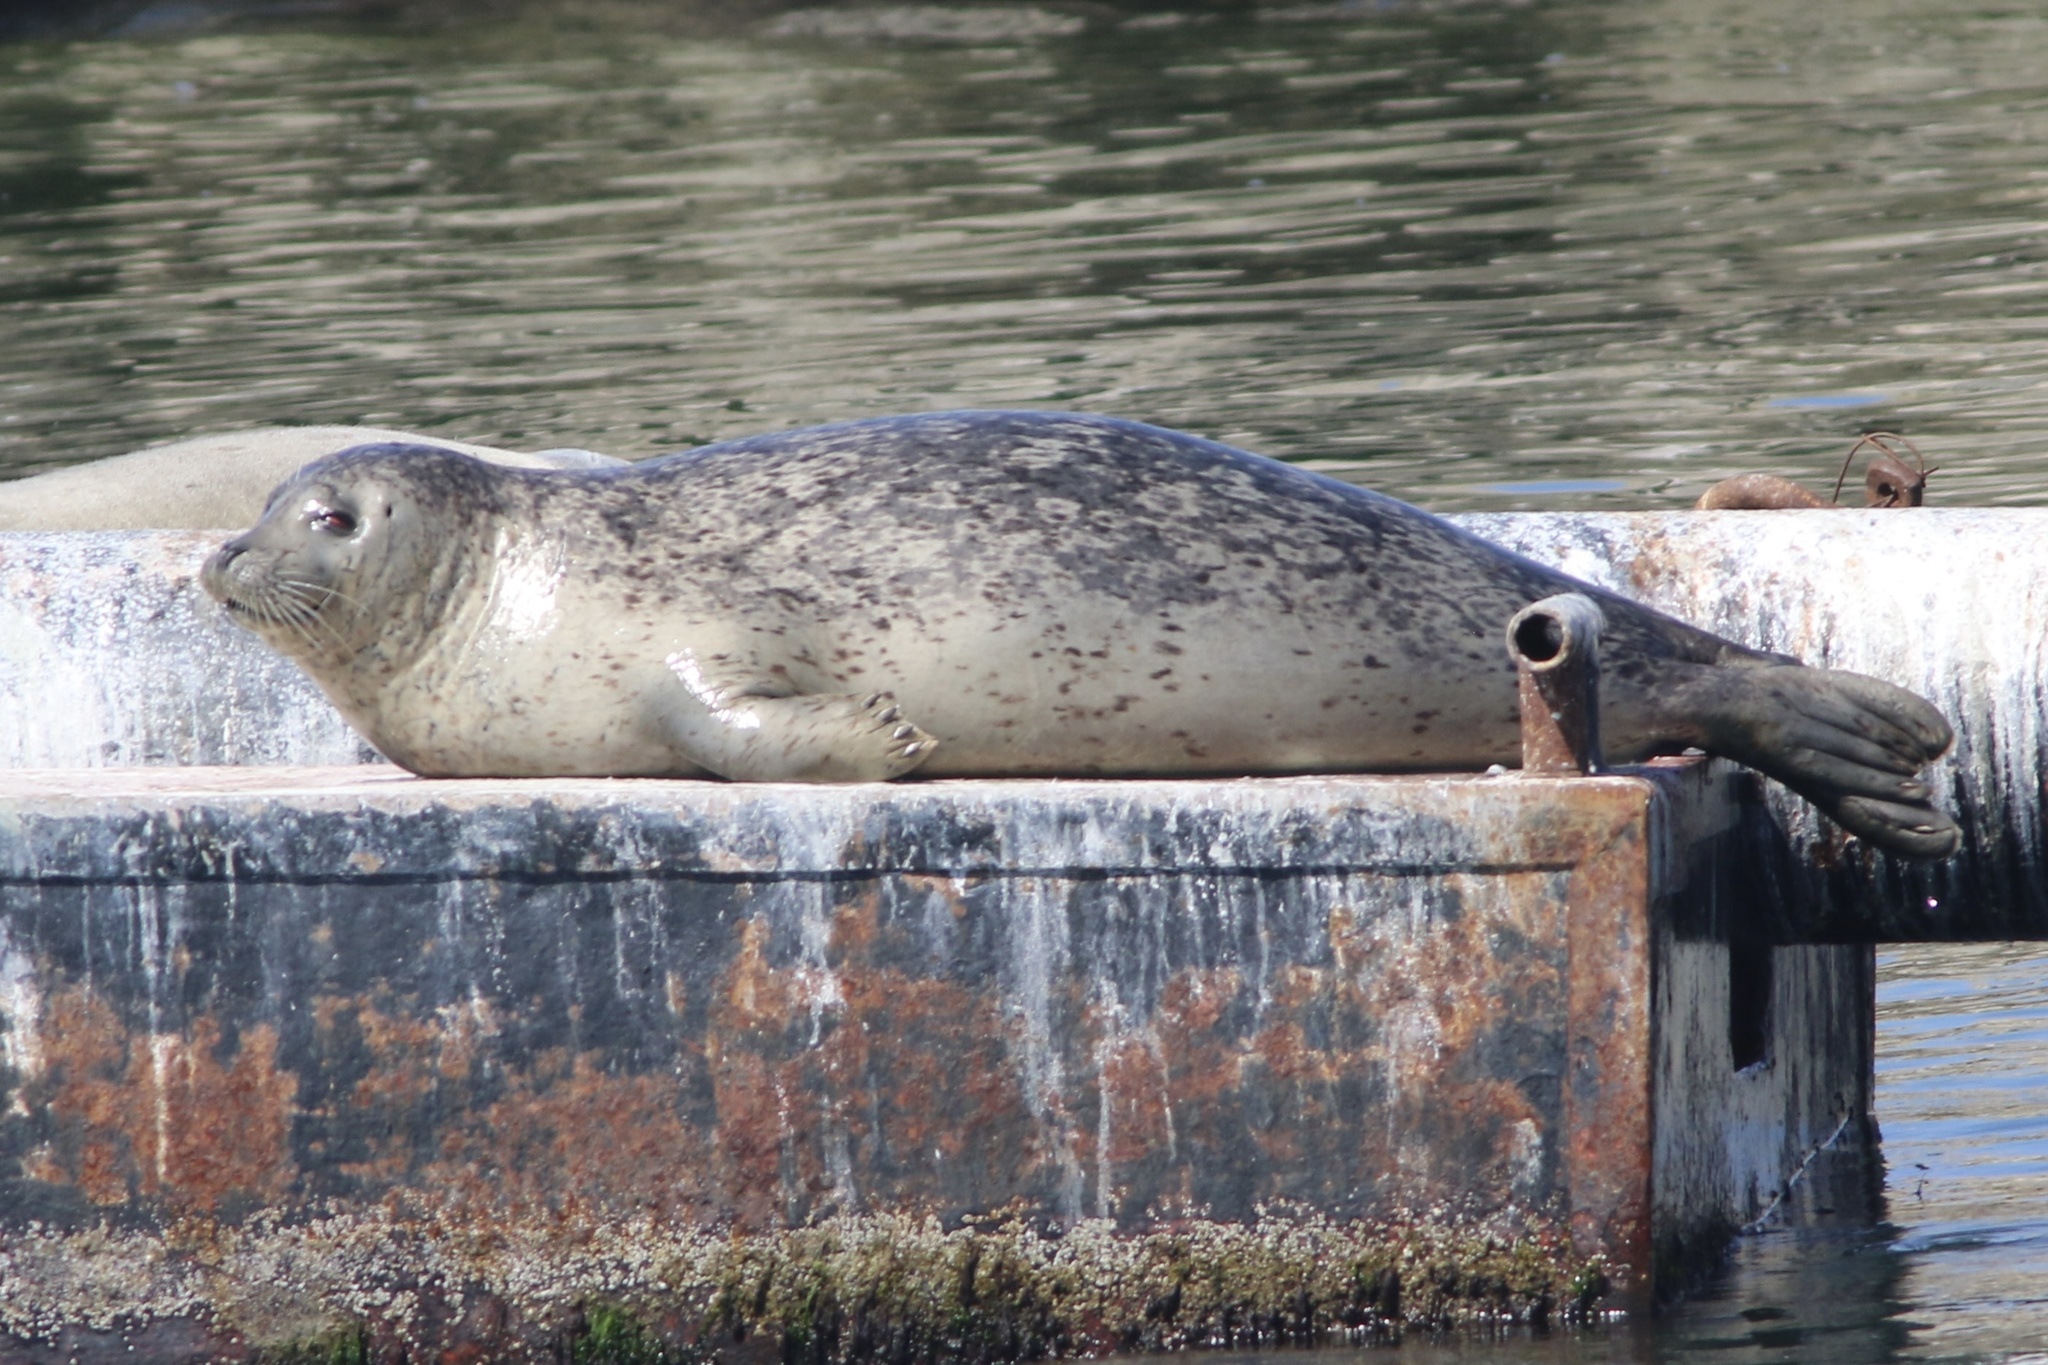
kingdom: Animalia
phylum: Chordata
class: Mammalia
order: Carnivora
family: Phocidae
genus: Phoca
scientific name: Phoca vitulina
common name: Harbor seal
